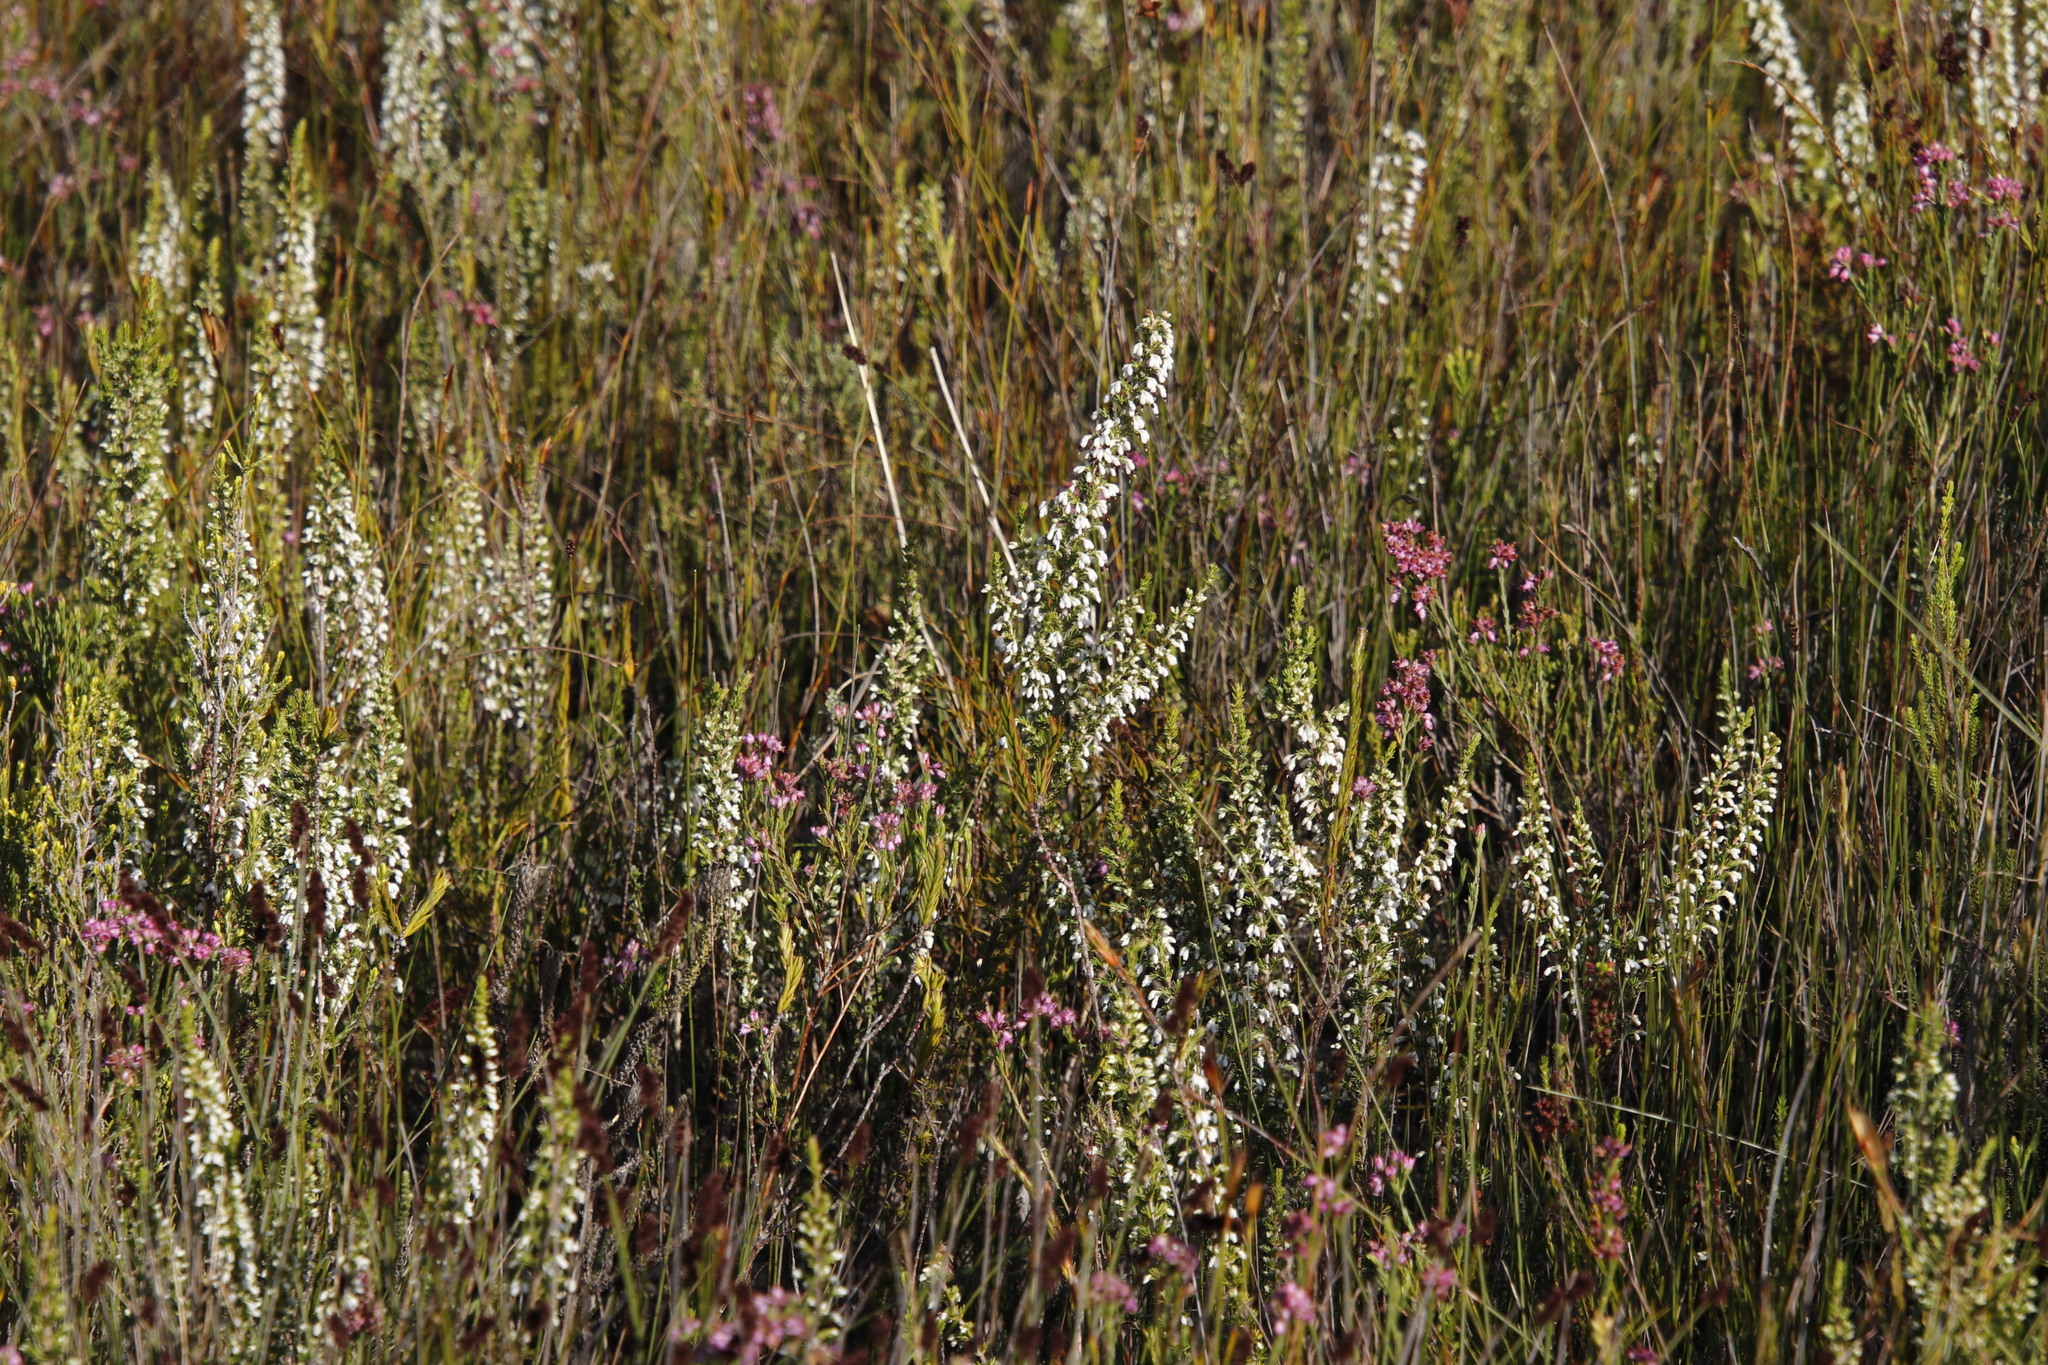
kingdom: Plantae
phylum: Tracheophyta
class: Magnoliopsida
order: Ericales
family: Ericaceae
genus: Erica
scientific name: Erica imbricata
